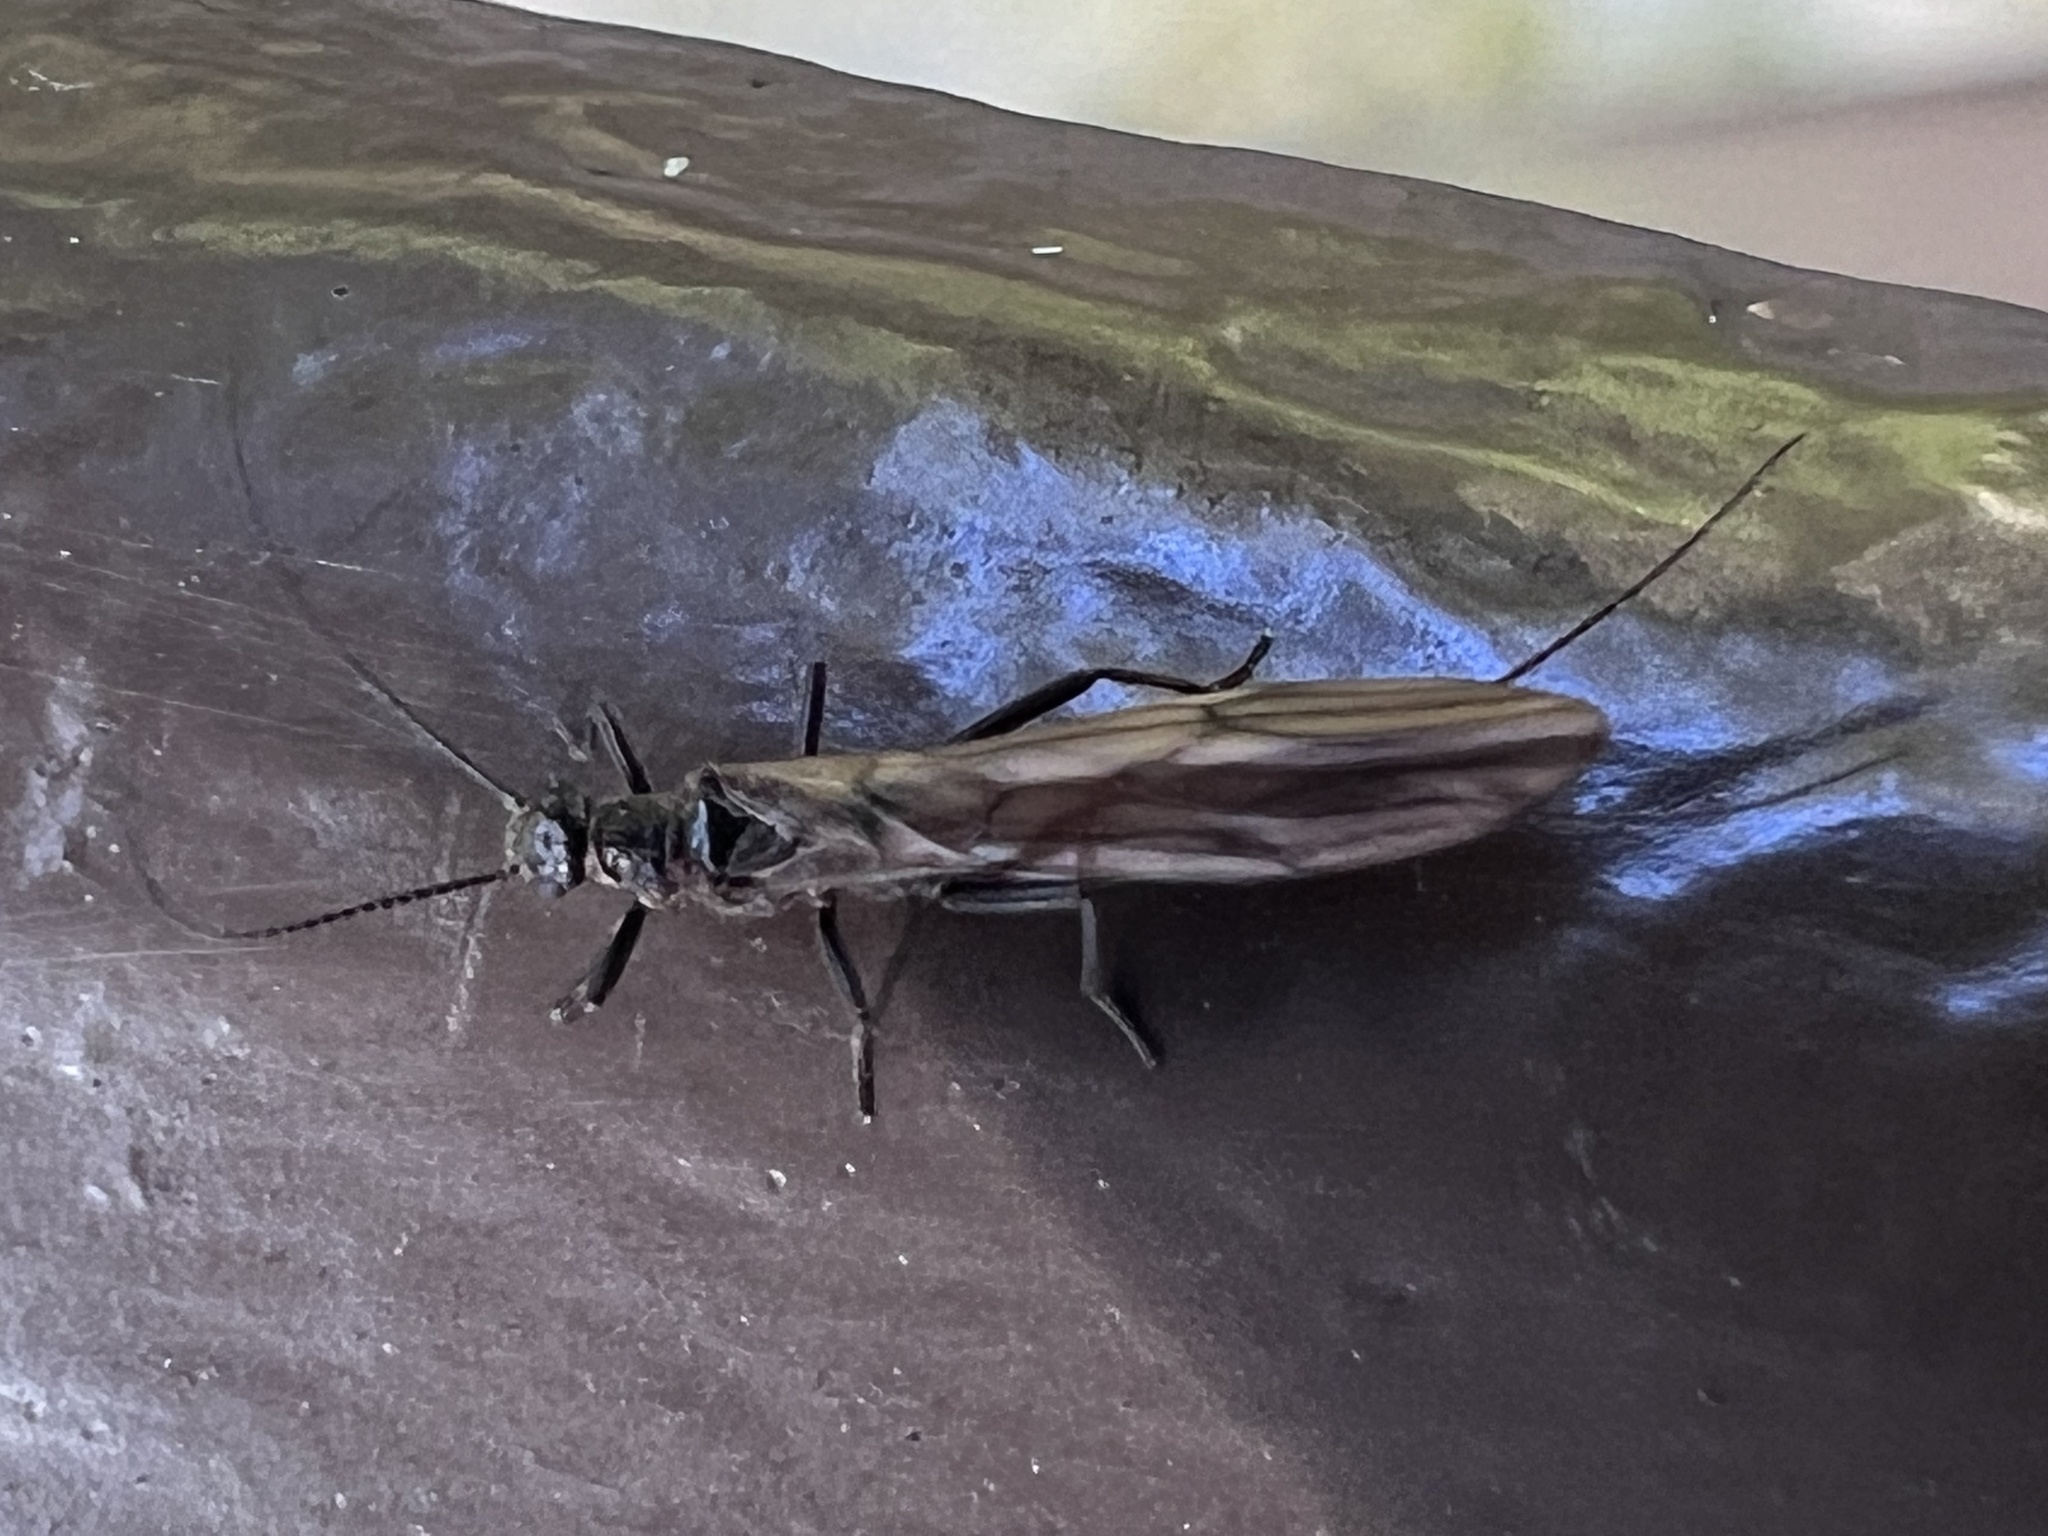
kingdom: Animalia
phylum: Arthropoda
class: Insecta
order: Plecoptera
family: Capniidae
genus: Capnia
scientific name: Capnia excavata
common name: Saddleback snowfly
